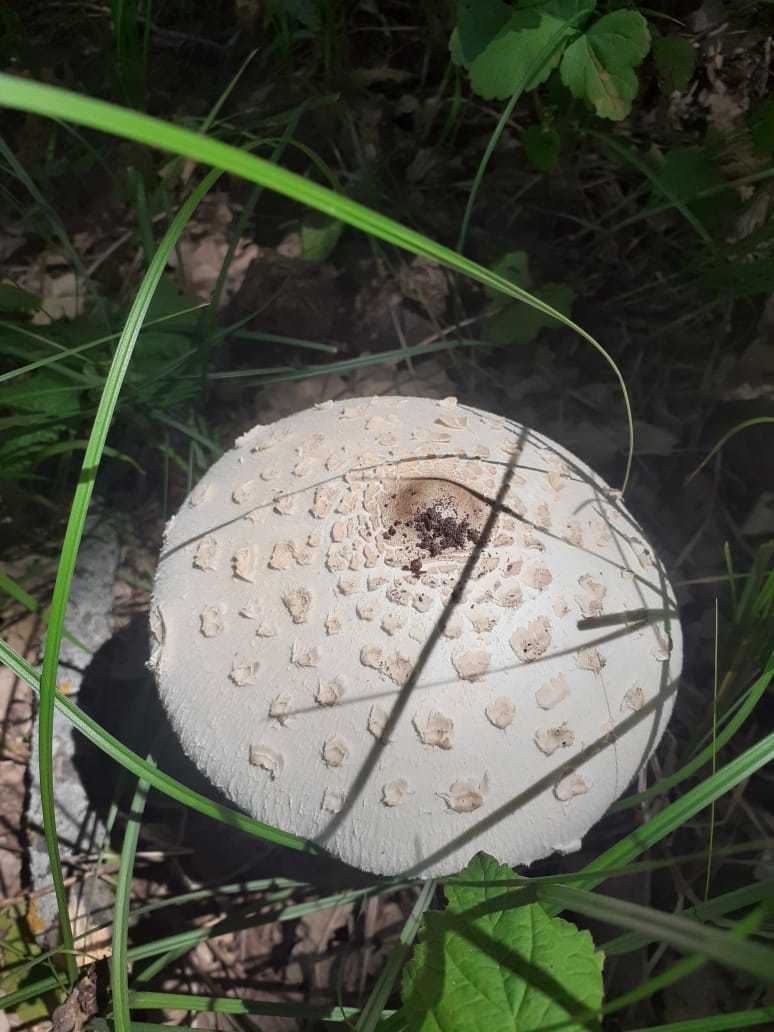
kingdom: Fungi
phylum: Basidiomycota
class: Agaricomycetes
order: Agaricales
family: Agaricaceae
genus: Macrolepiota
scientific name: Macrolepiota procera
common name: Parasol
